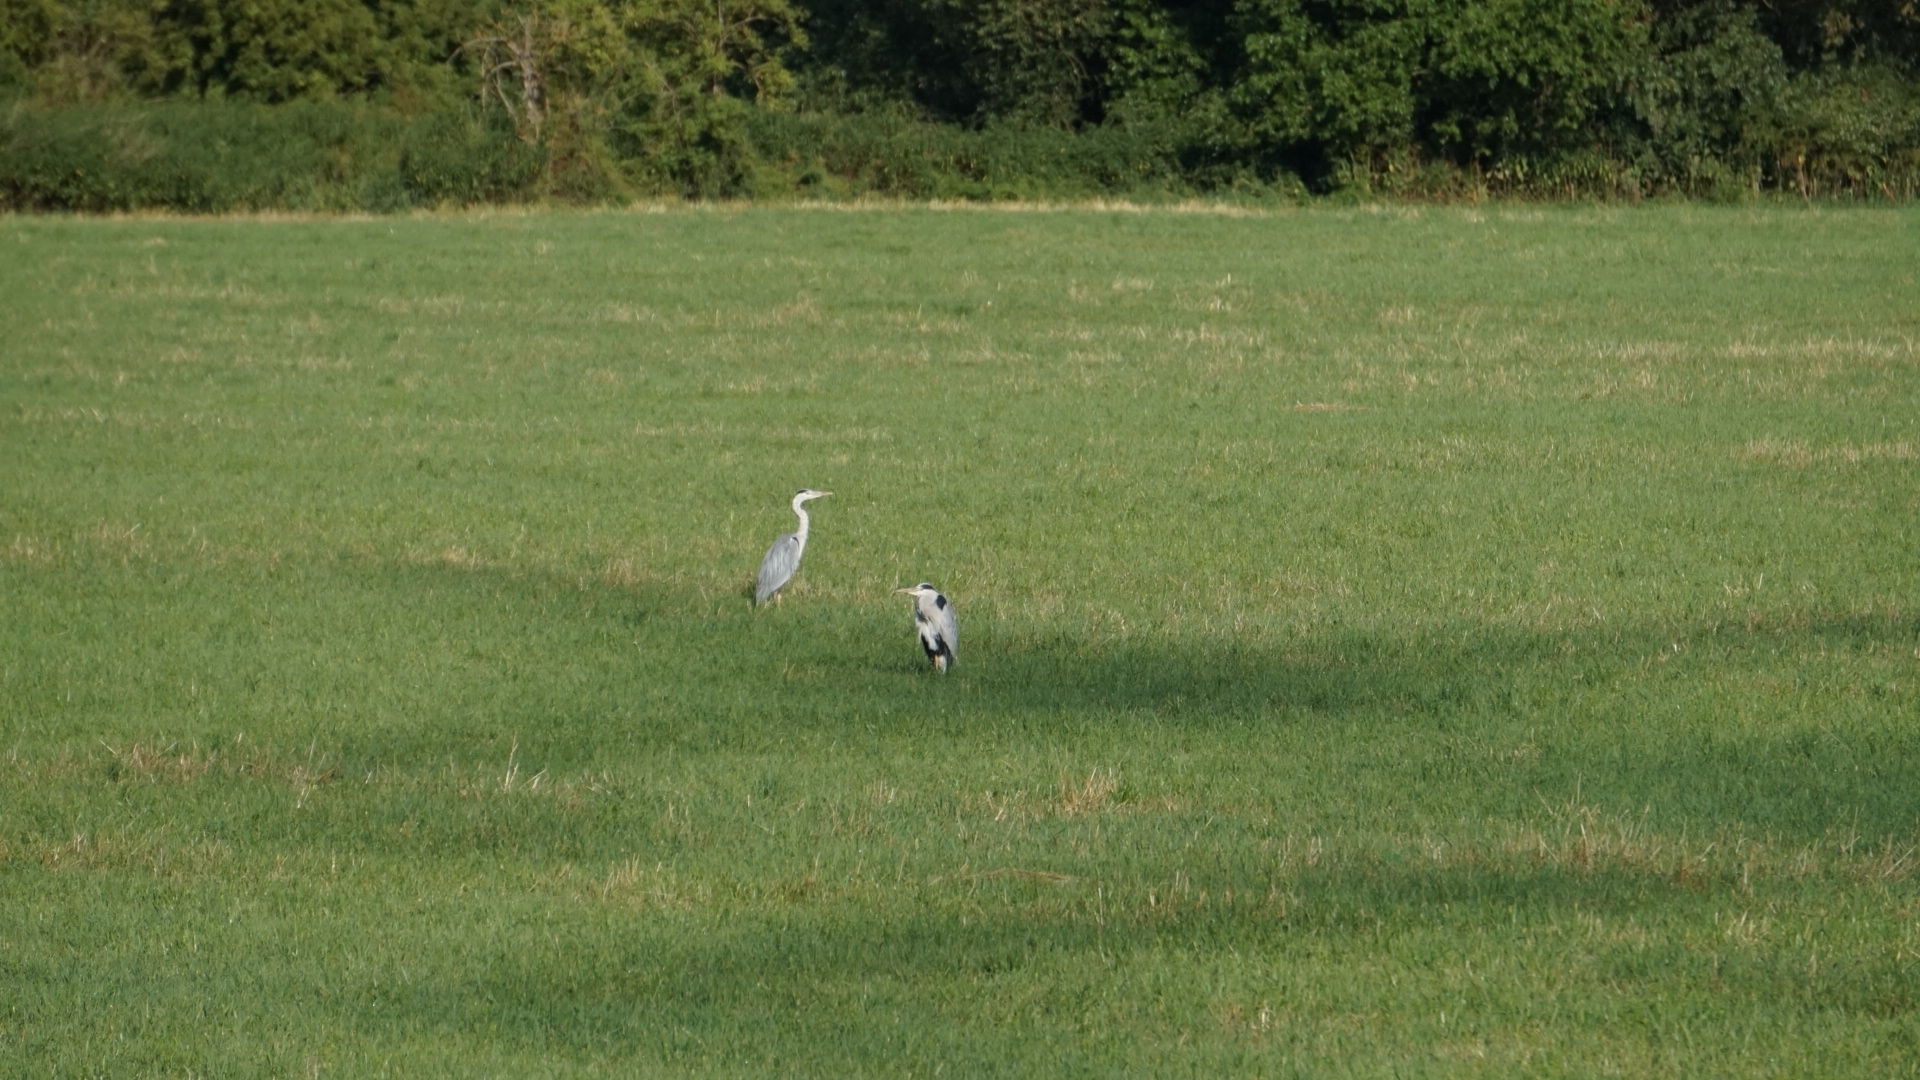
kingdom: Animalia
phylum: Chordata
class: Aves
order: Pelecaniformes
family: Ardeidae
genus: Ardea
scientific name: Ardea cinerea
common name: Grey heron
